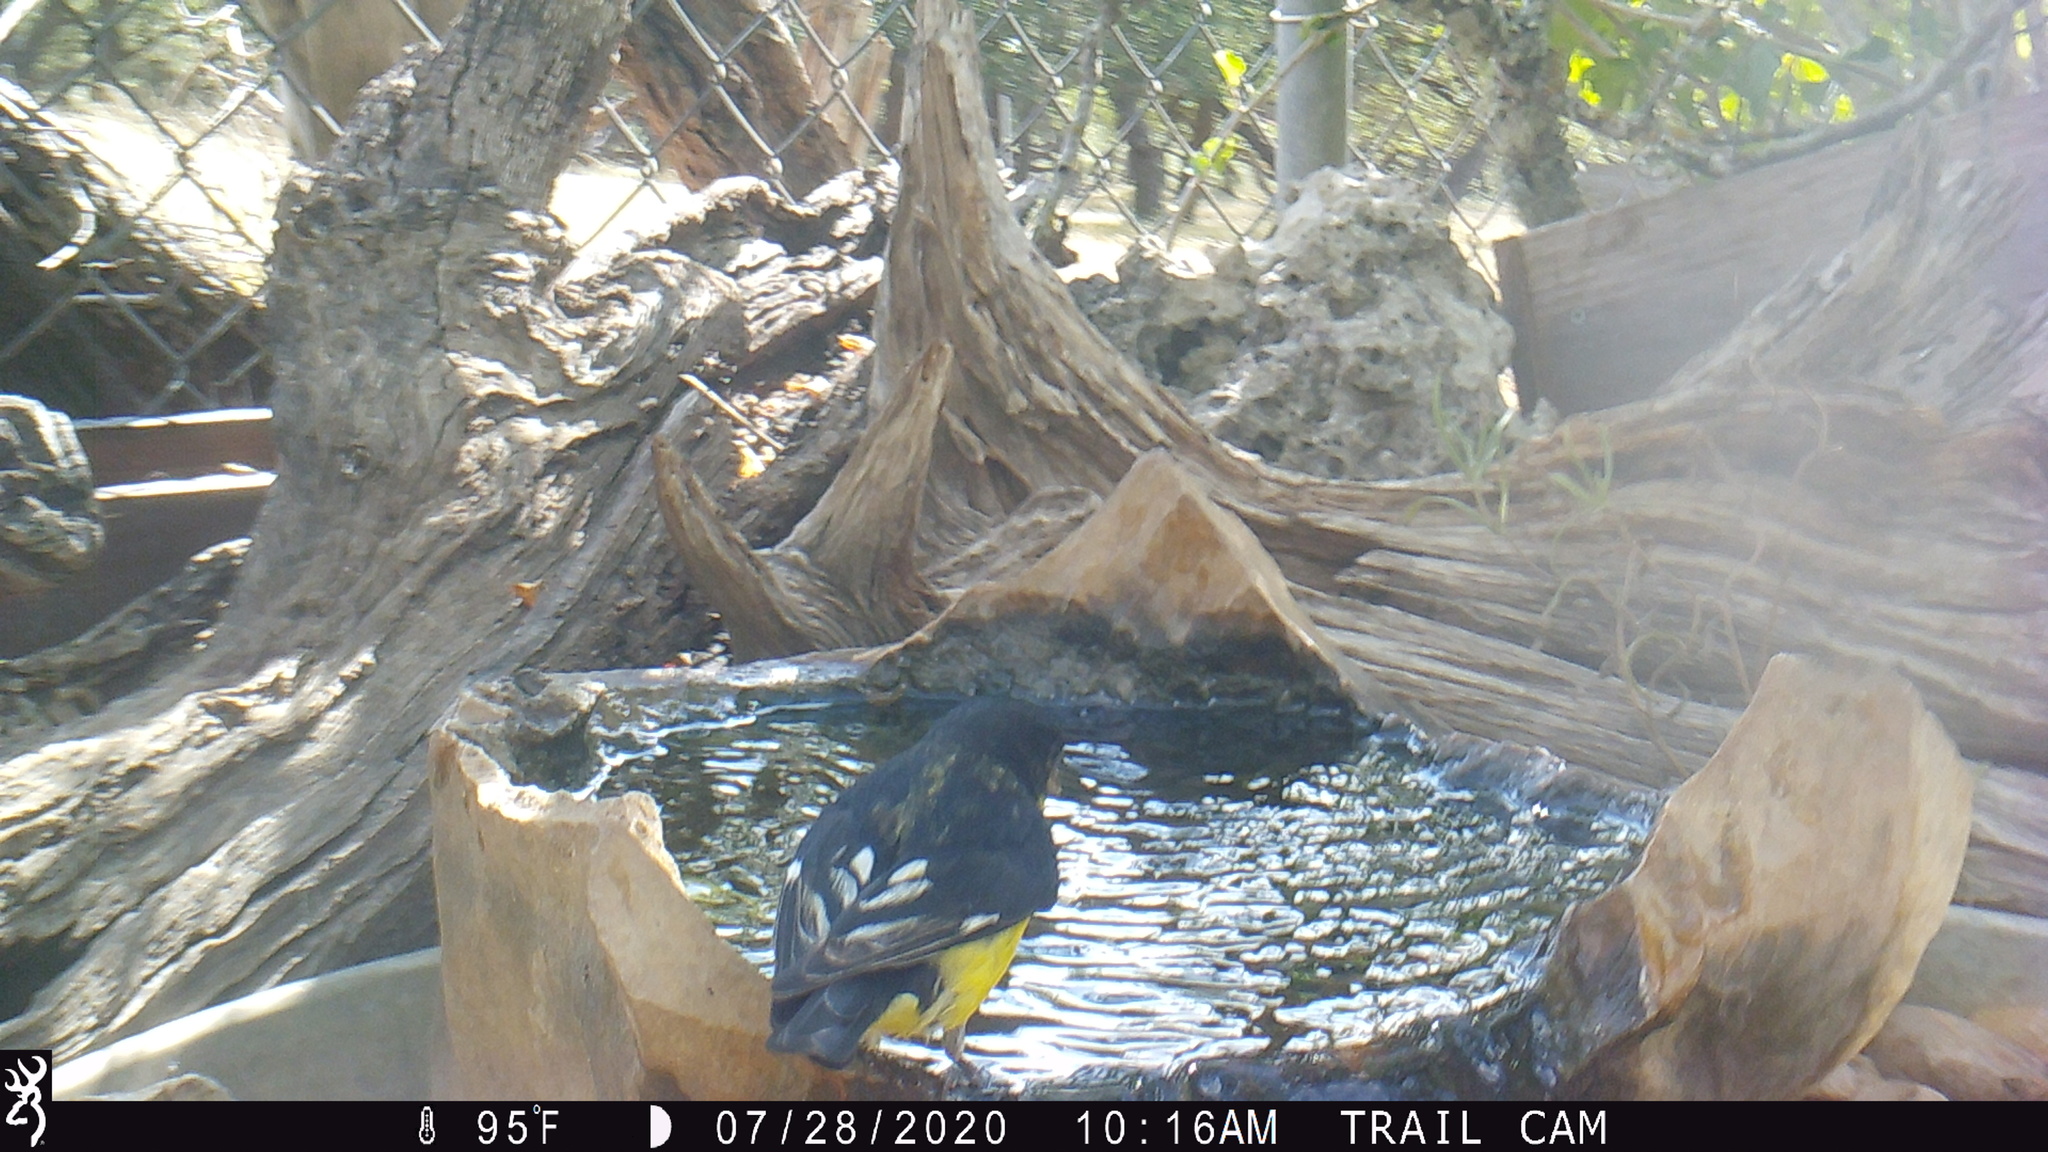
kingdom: Animalia
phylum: Chordata
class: Aves
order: Passeriformes
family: Fringillidae
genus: Spinus
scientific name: Spinus psaltria
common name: Lesser goldfinch
